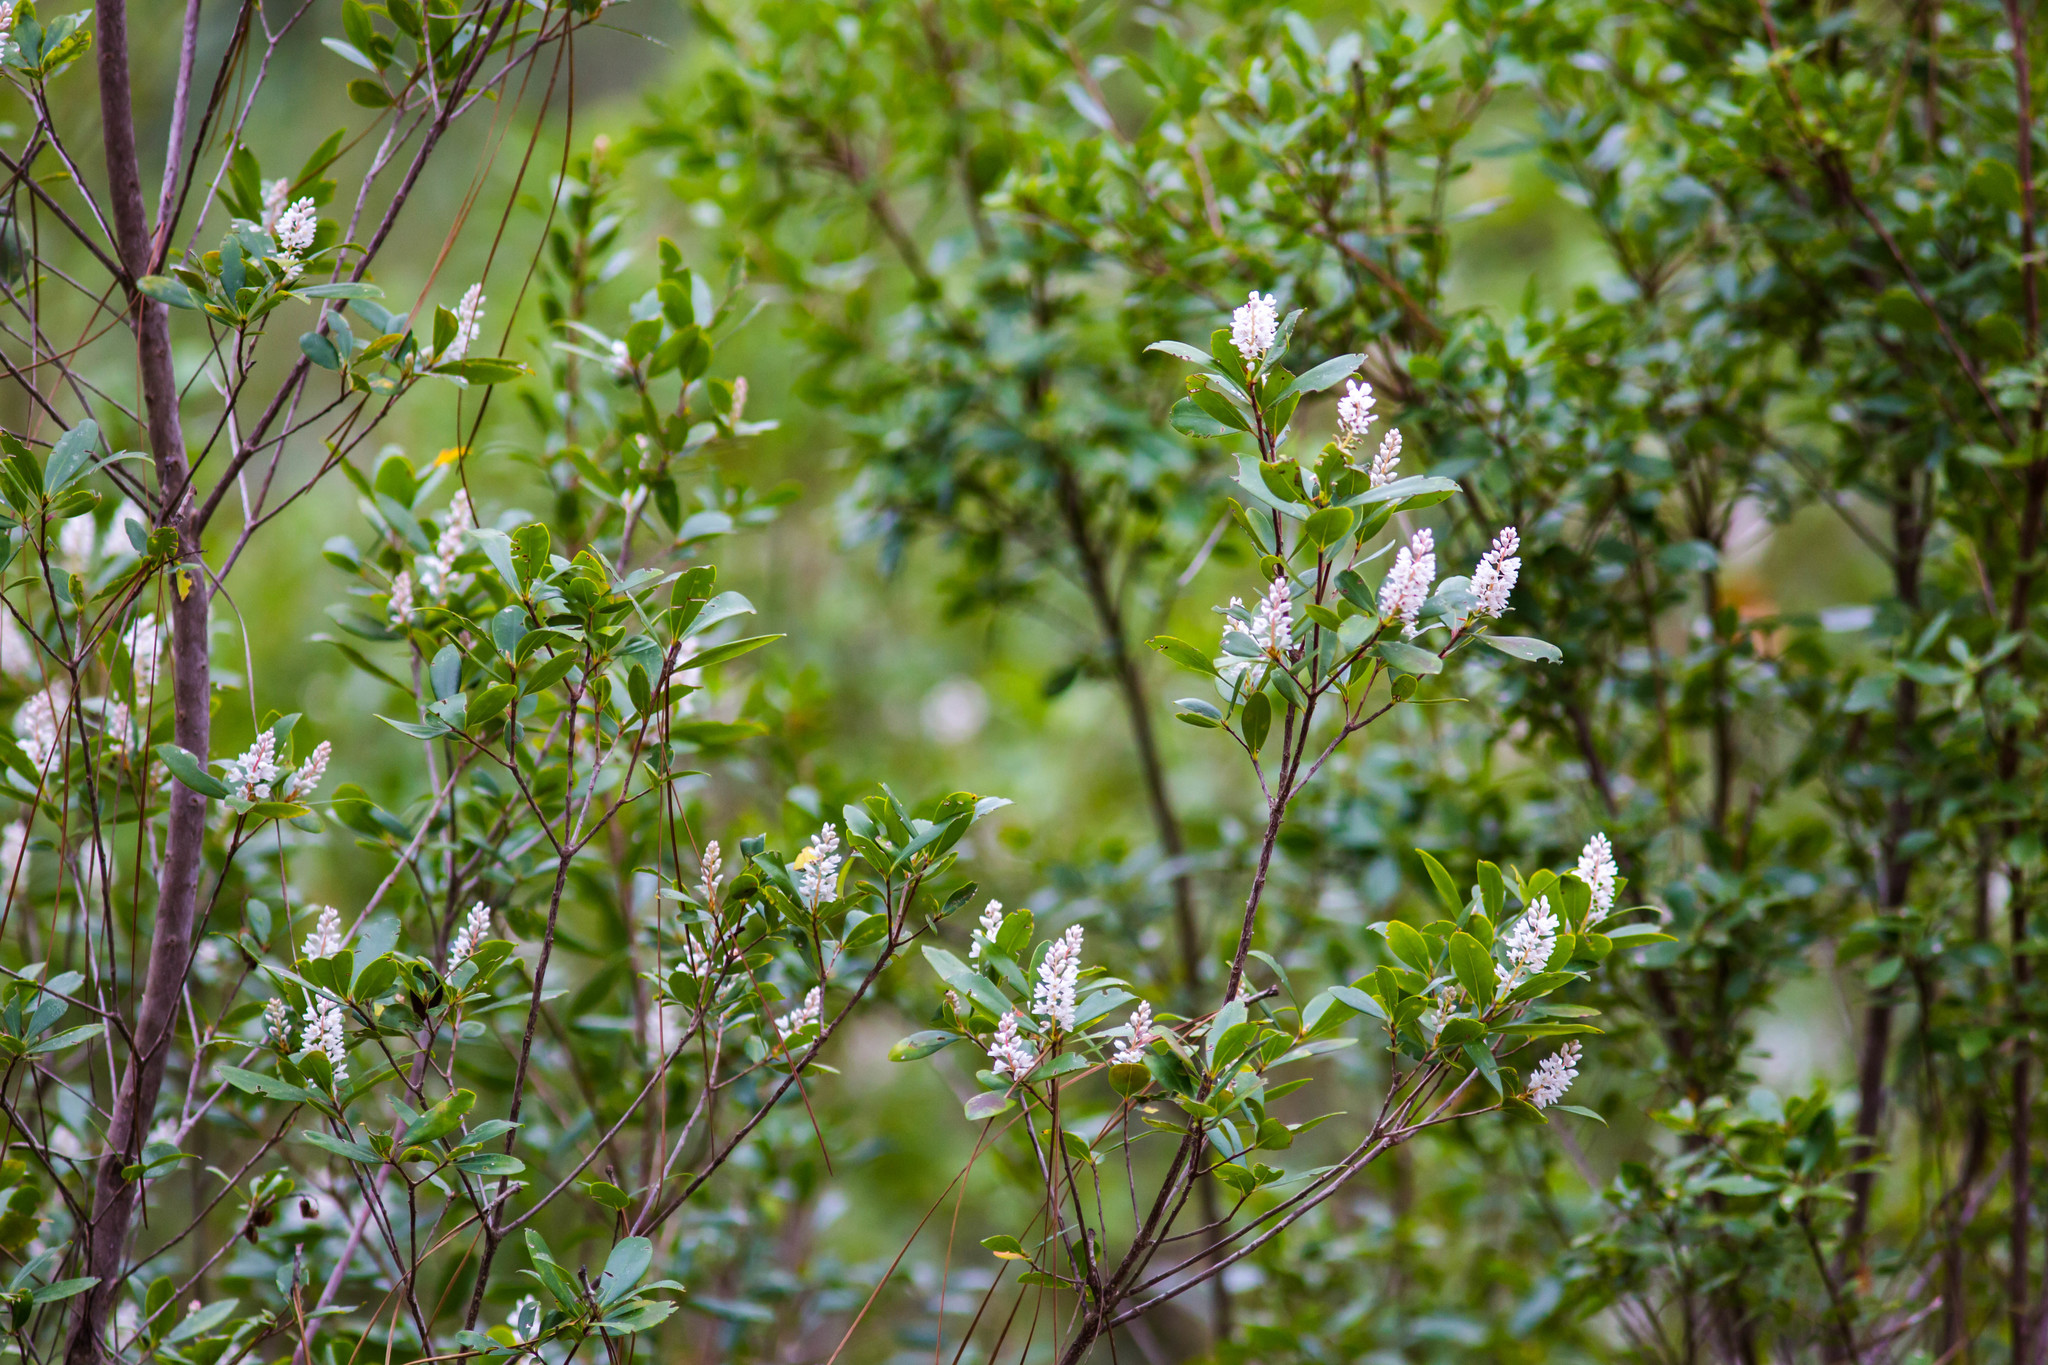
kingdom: Plantae
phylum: Tracheophyta
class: Magnoliopsida
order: Ericales
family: Cyrillaceae
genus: Cliftonia
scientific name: Cliftonia monophylla
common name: Titi
